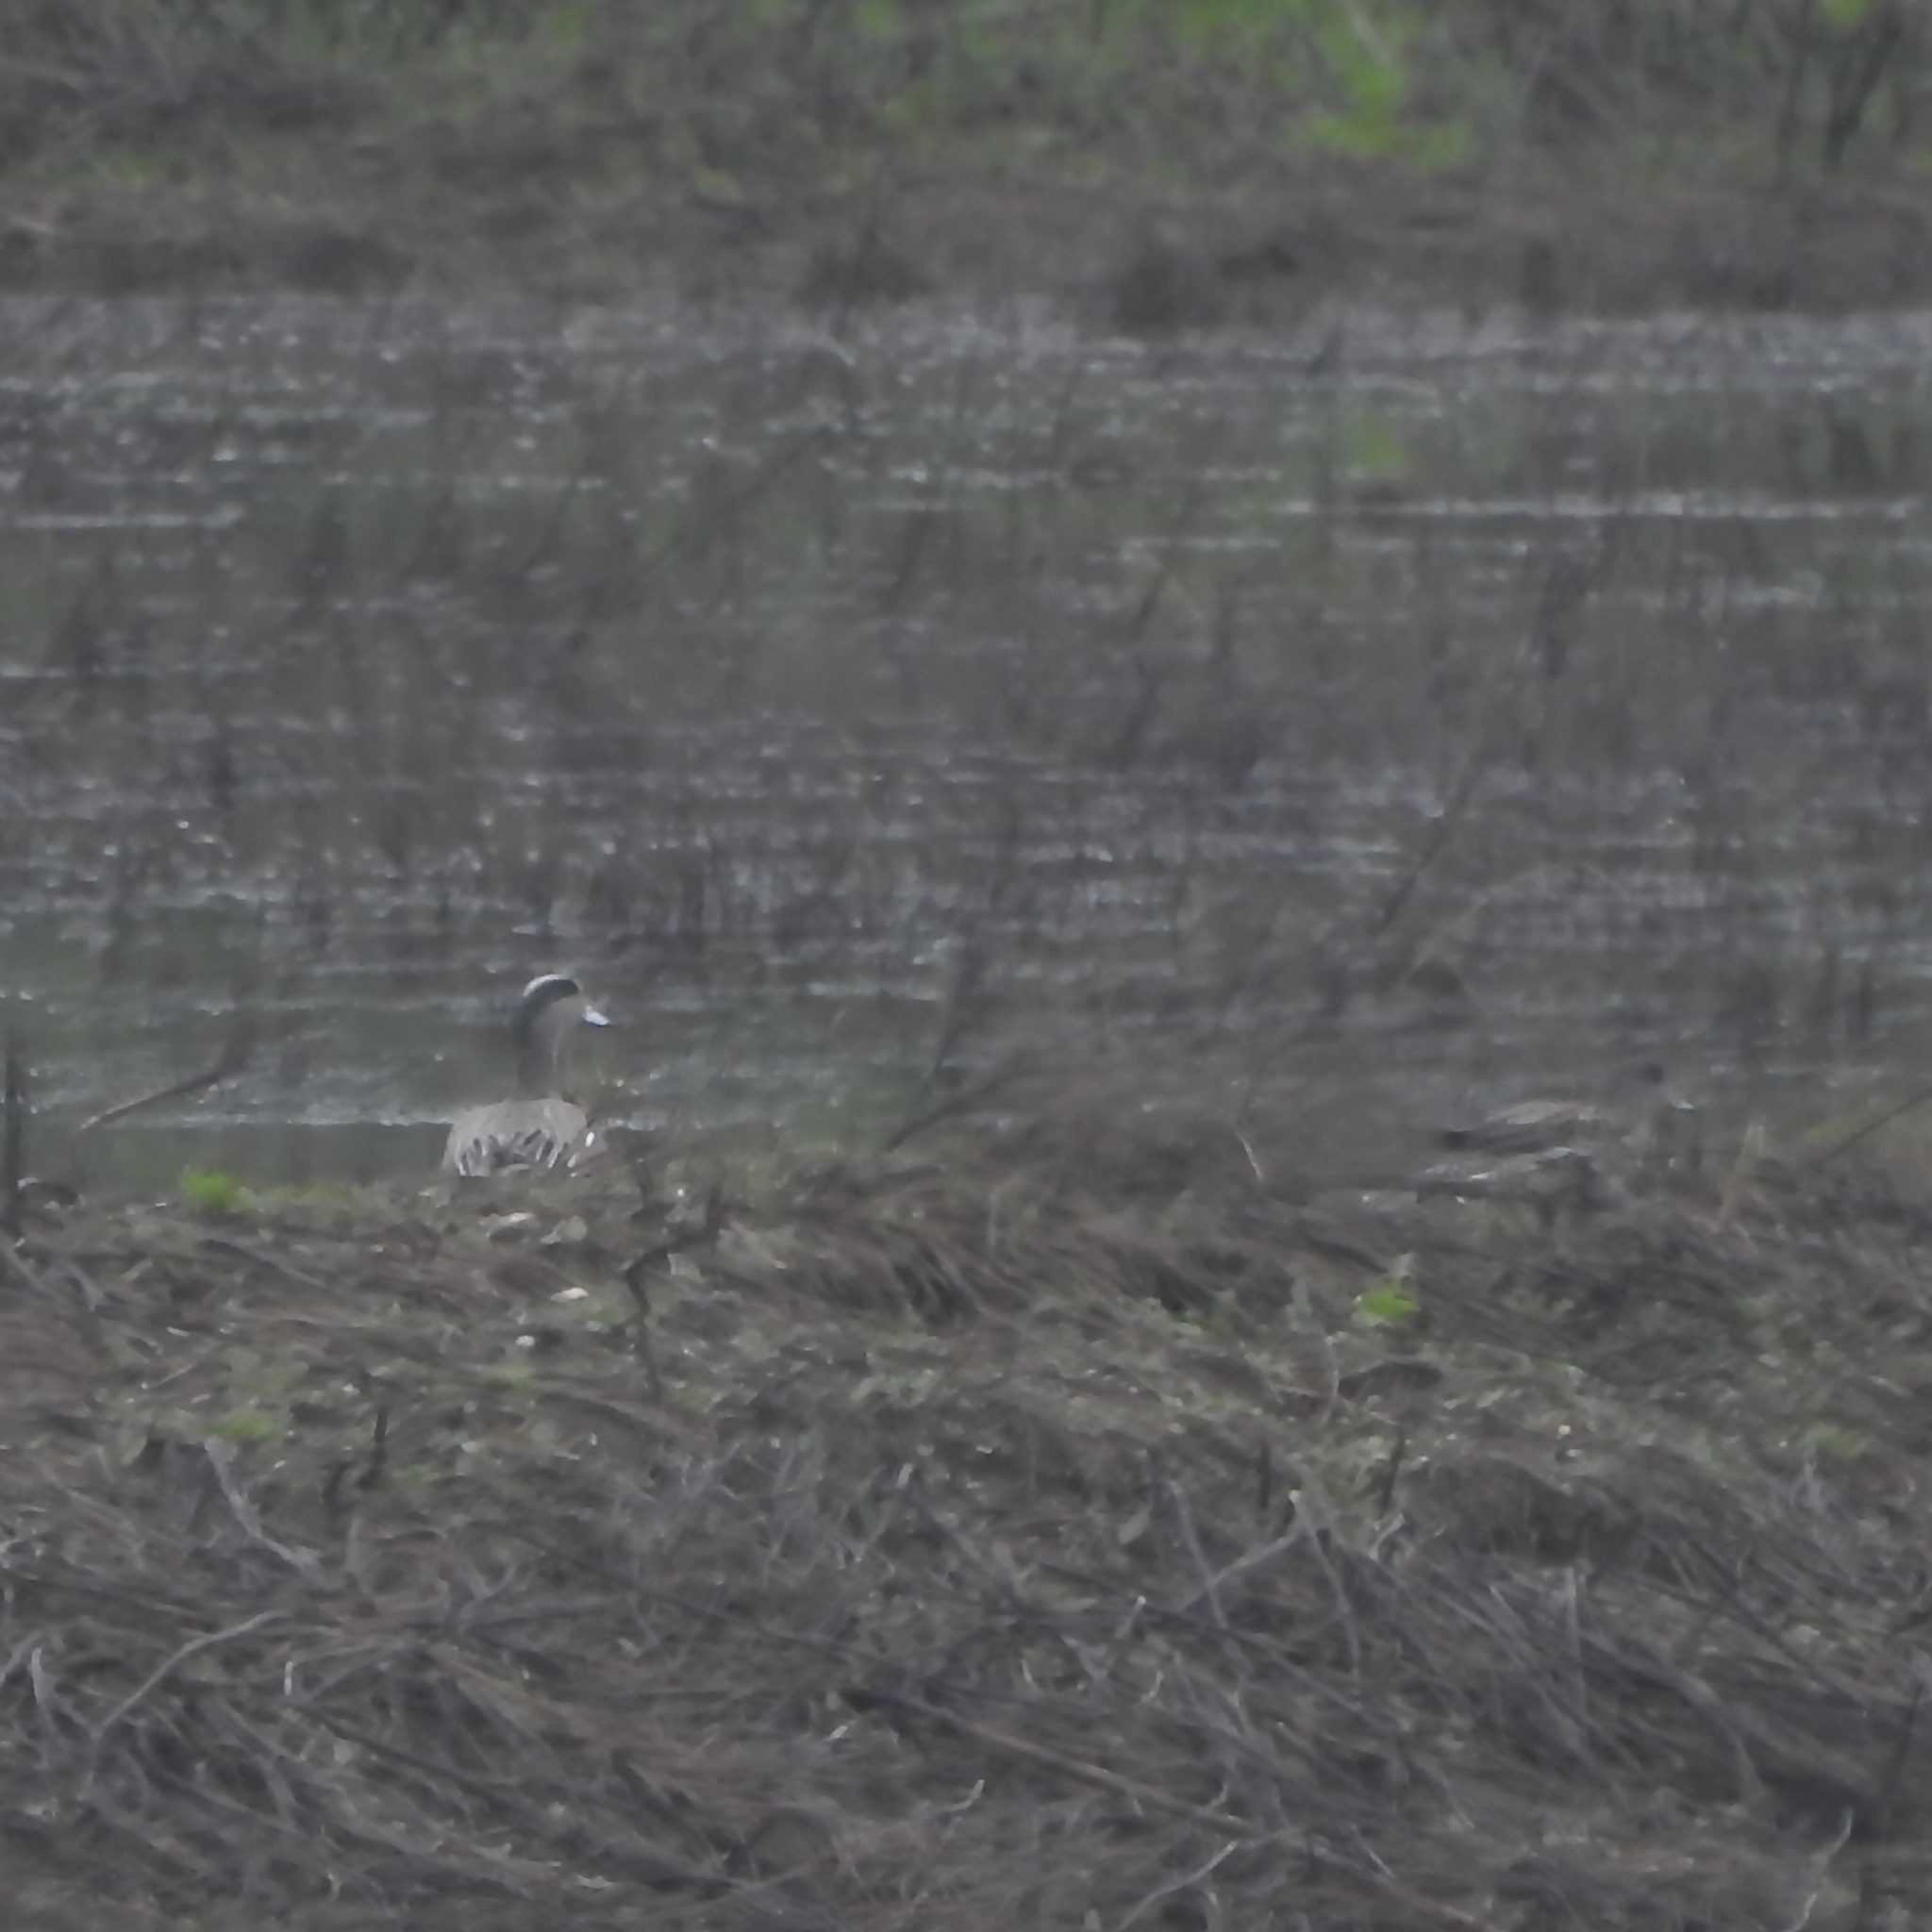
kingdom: Animalia
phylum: Chordata
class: Aves
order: Anseriformes
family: Anatidae
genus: Mareca
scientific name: Mareca americana
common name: American wigeon
